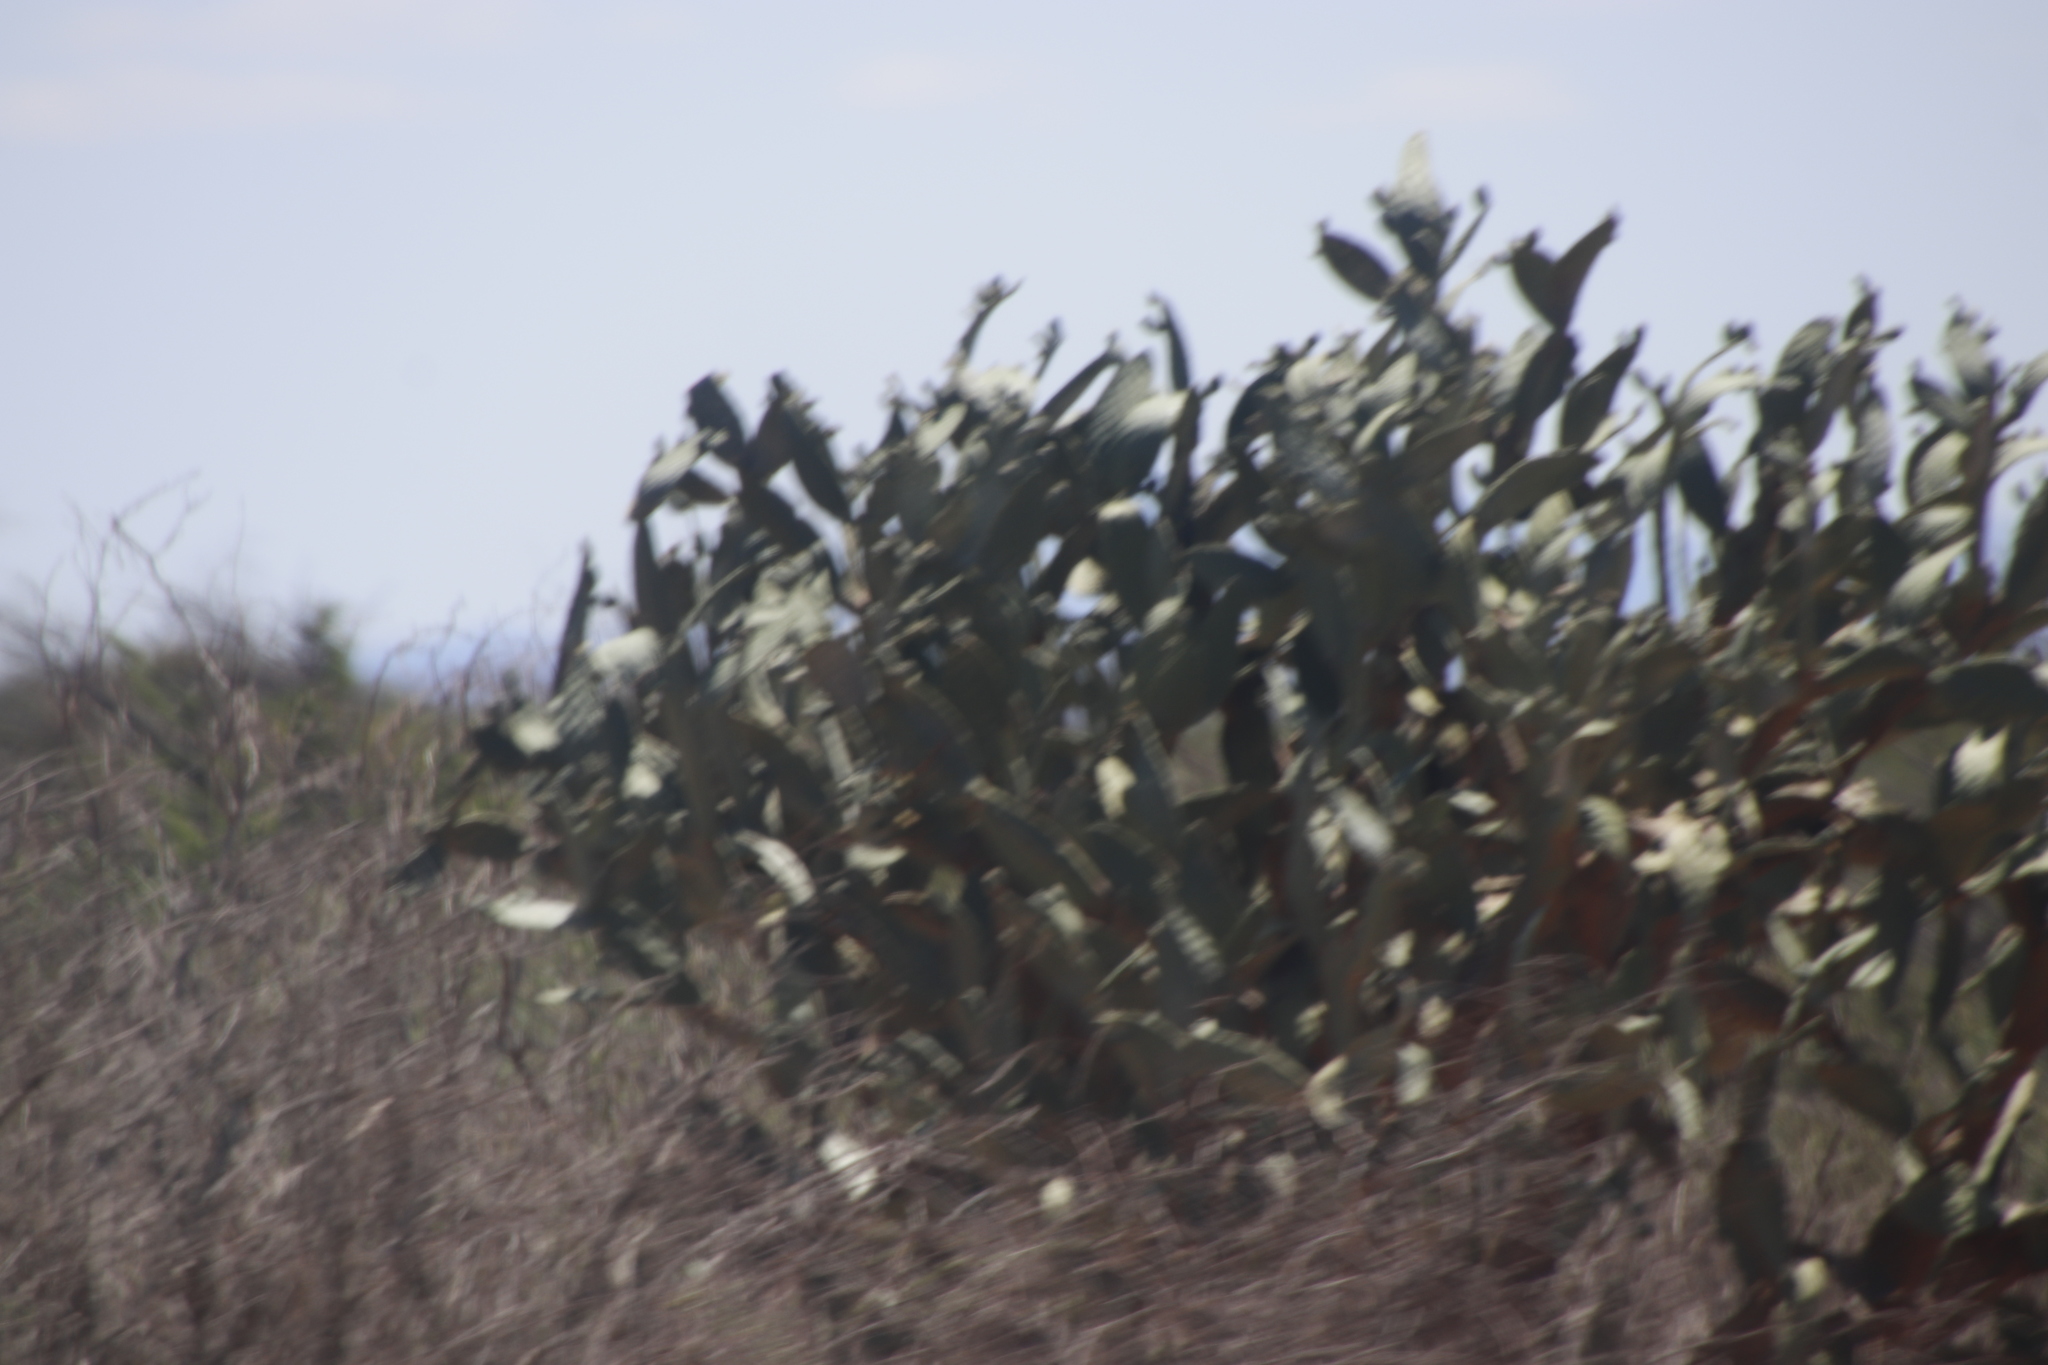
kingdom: Plantae
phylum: Tracheophyta
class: Magnoliopsida
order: Caryophyllales
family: Cactaceae
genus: Opuntia
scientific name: Opuntia ficus-indica
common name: Barbary fig
